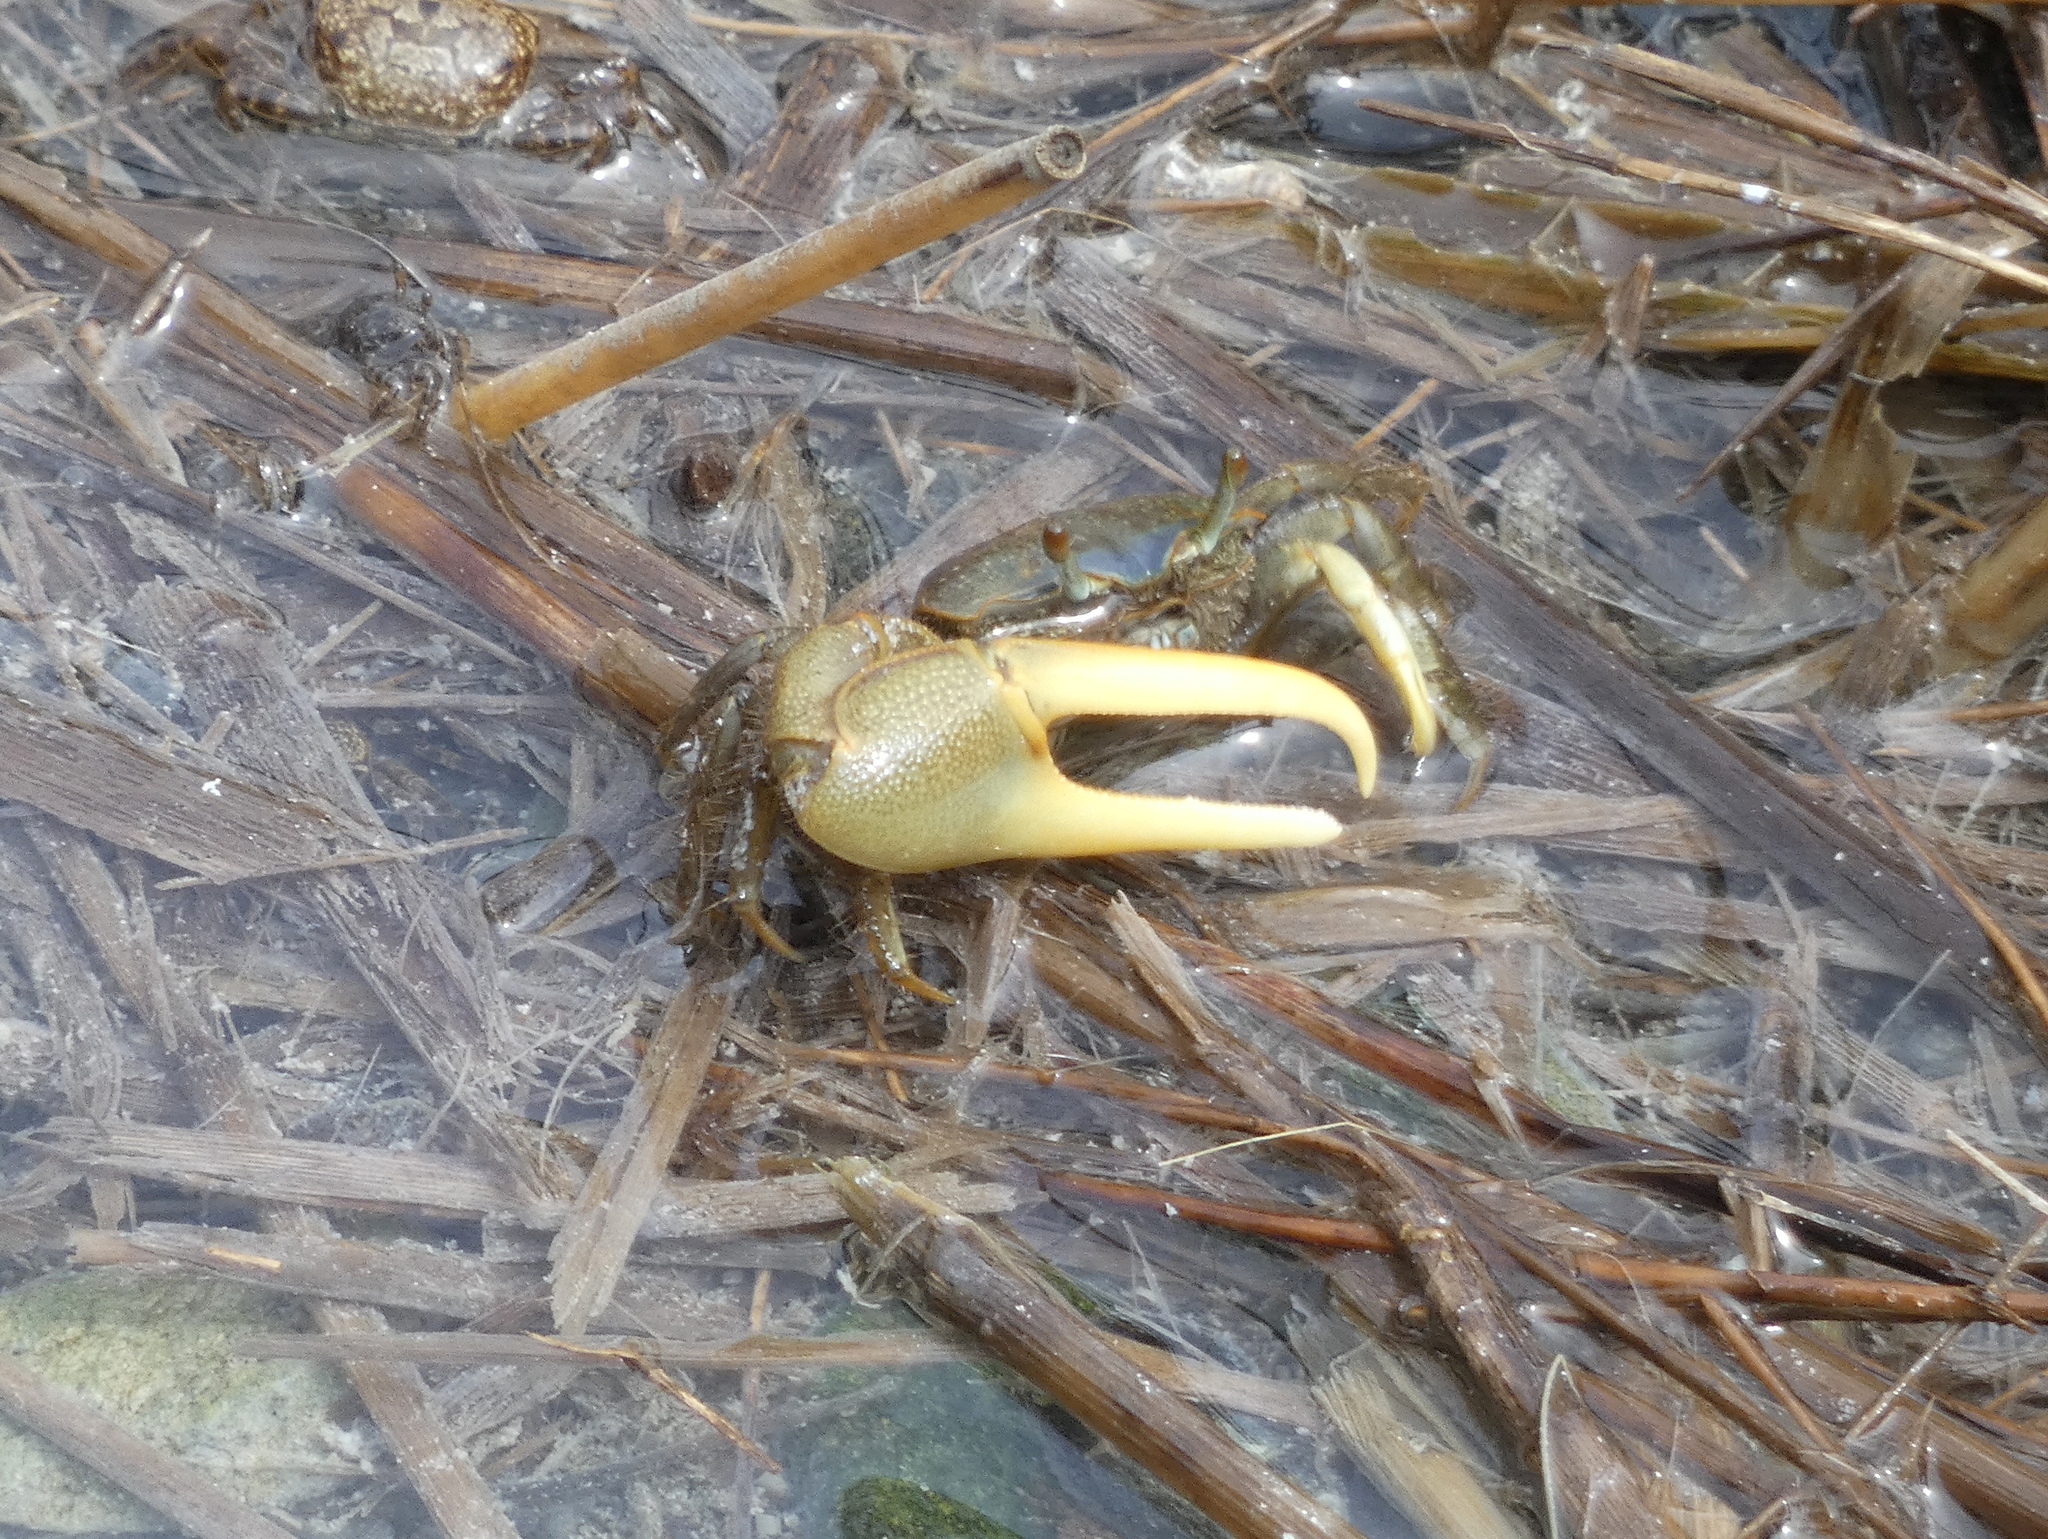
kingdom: Animalia
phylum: Arthropoda
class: Malacostraca
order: Decapoda
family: Ocypodidae
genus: Minuca
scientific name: Minuca pugnax
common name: Mud fiddler crab
